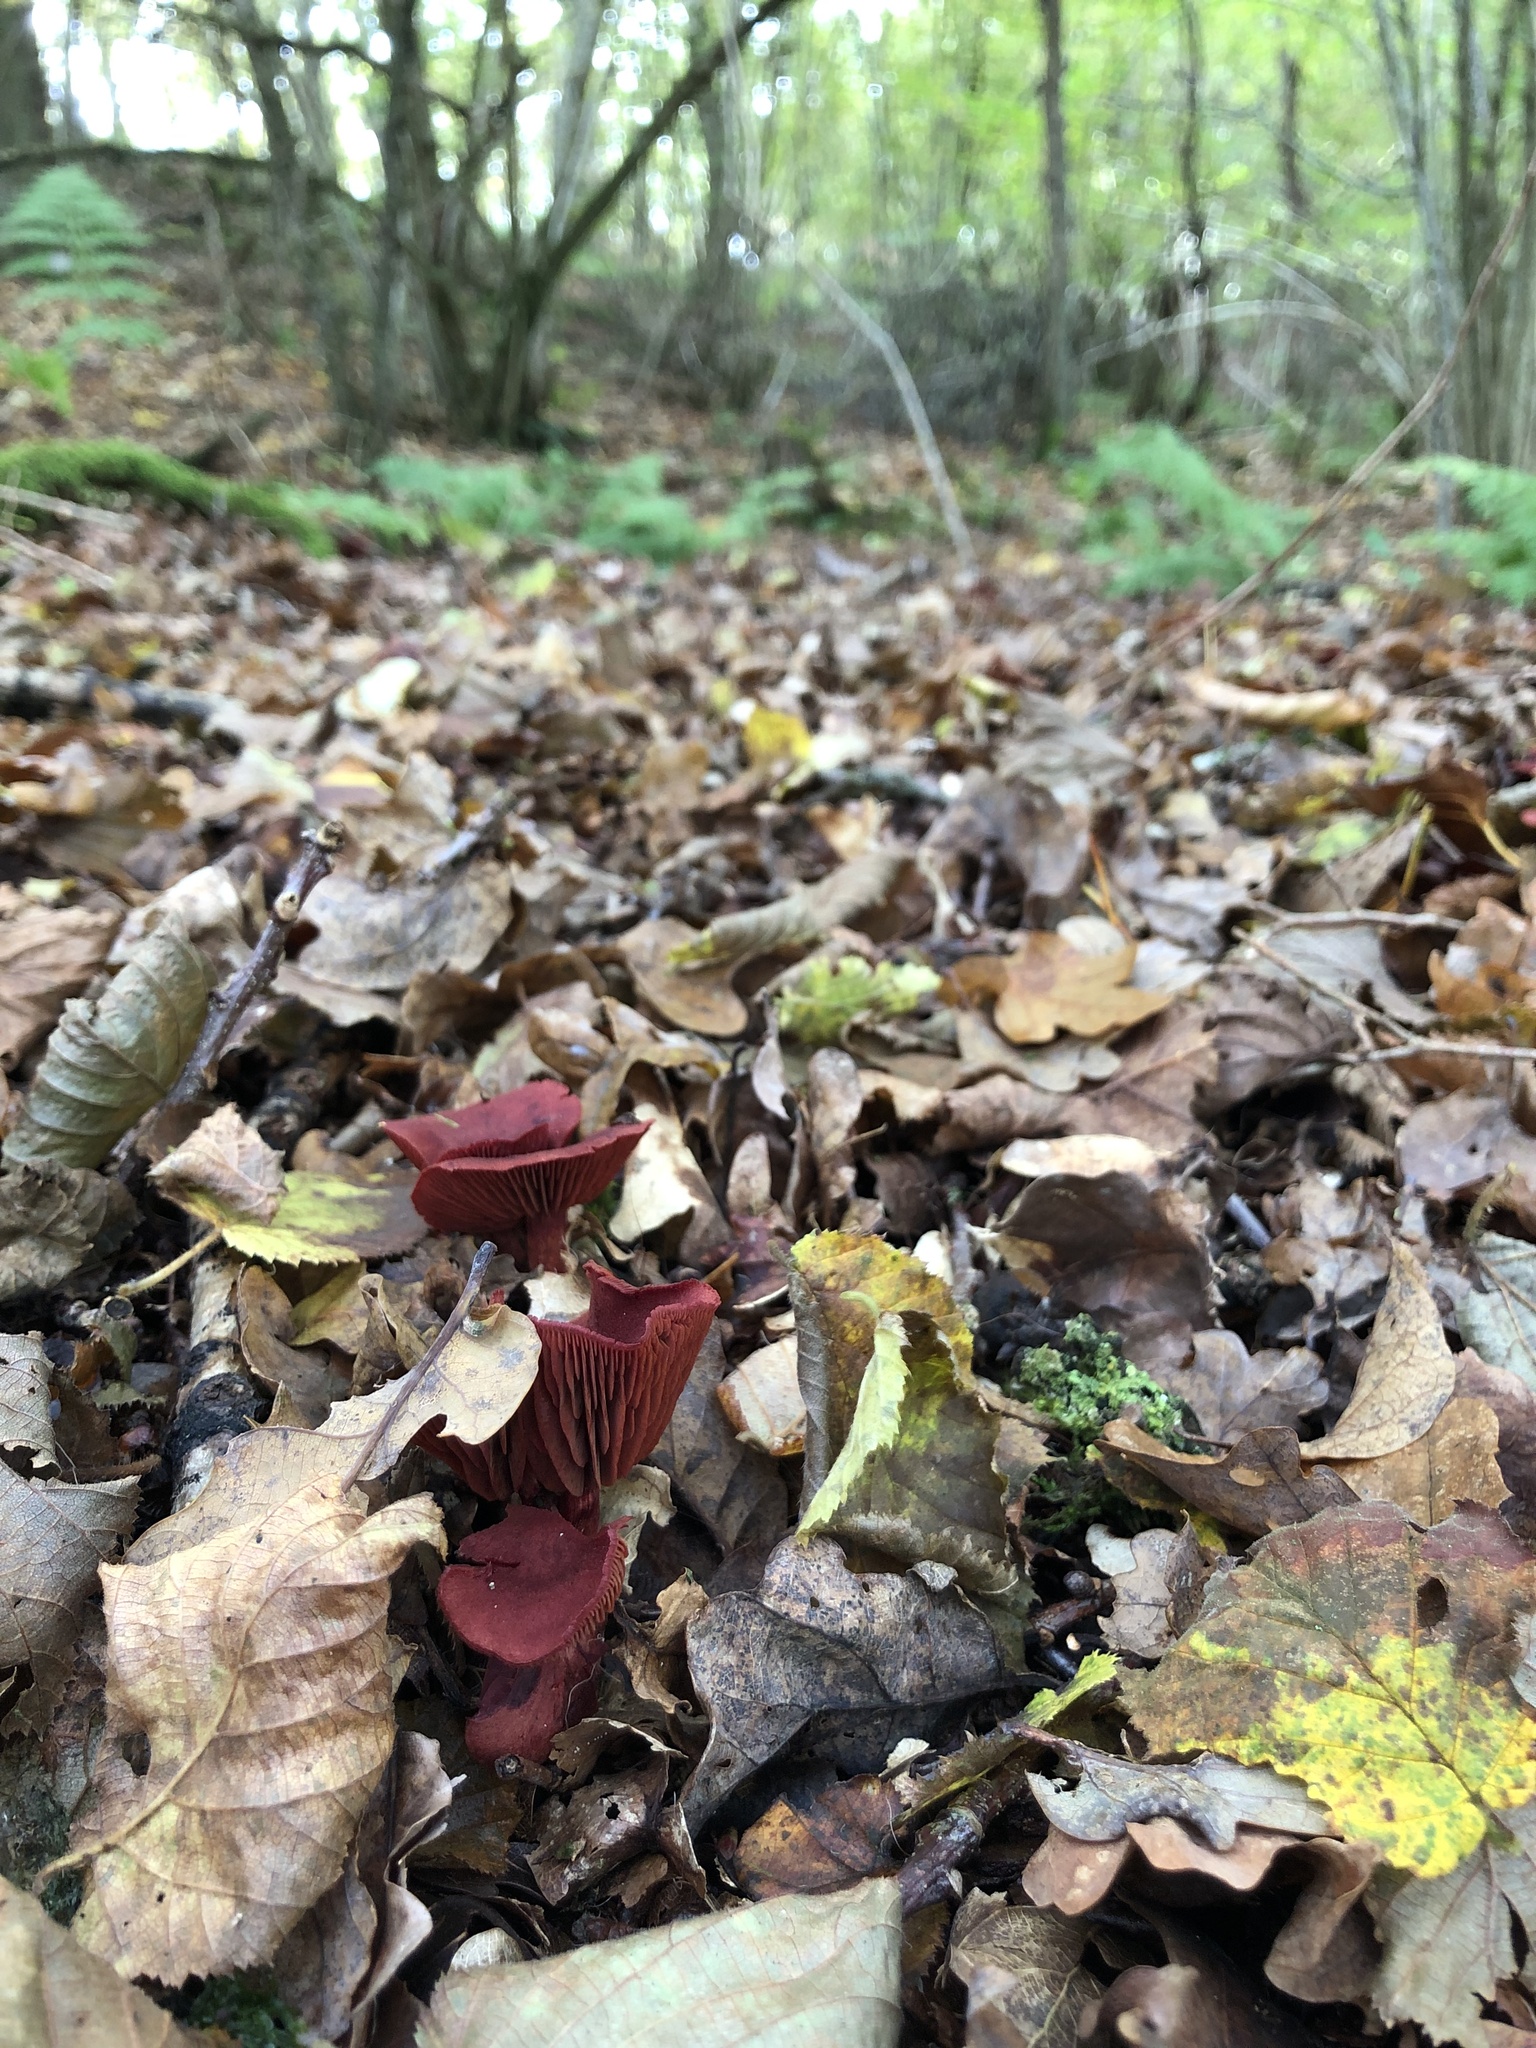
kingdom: Fungi
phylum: Basidiomycota
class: Agaricomycetes
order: Agaricales
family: Cortinariaceae
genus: Cortinarius
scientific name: Cortinarius sanguineus
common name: Bloodred webcap
